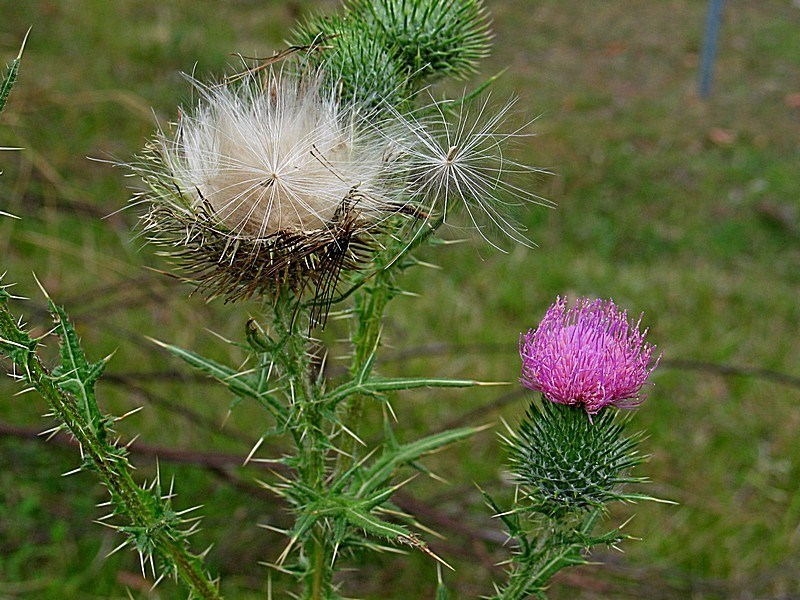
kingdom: Plantae
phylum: Tracheophyta
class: Magnoliopsida
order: Asterales
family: Asteraceae
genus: Cirsium
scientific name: Cirsium vulgare
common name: Bull thistle
